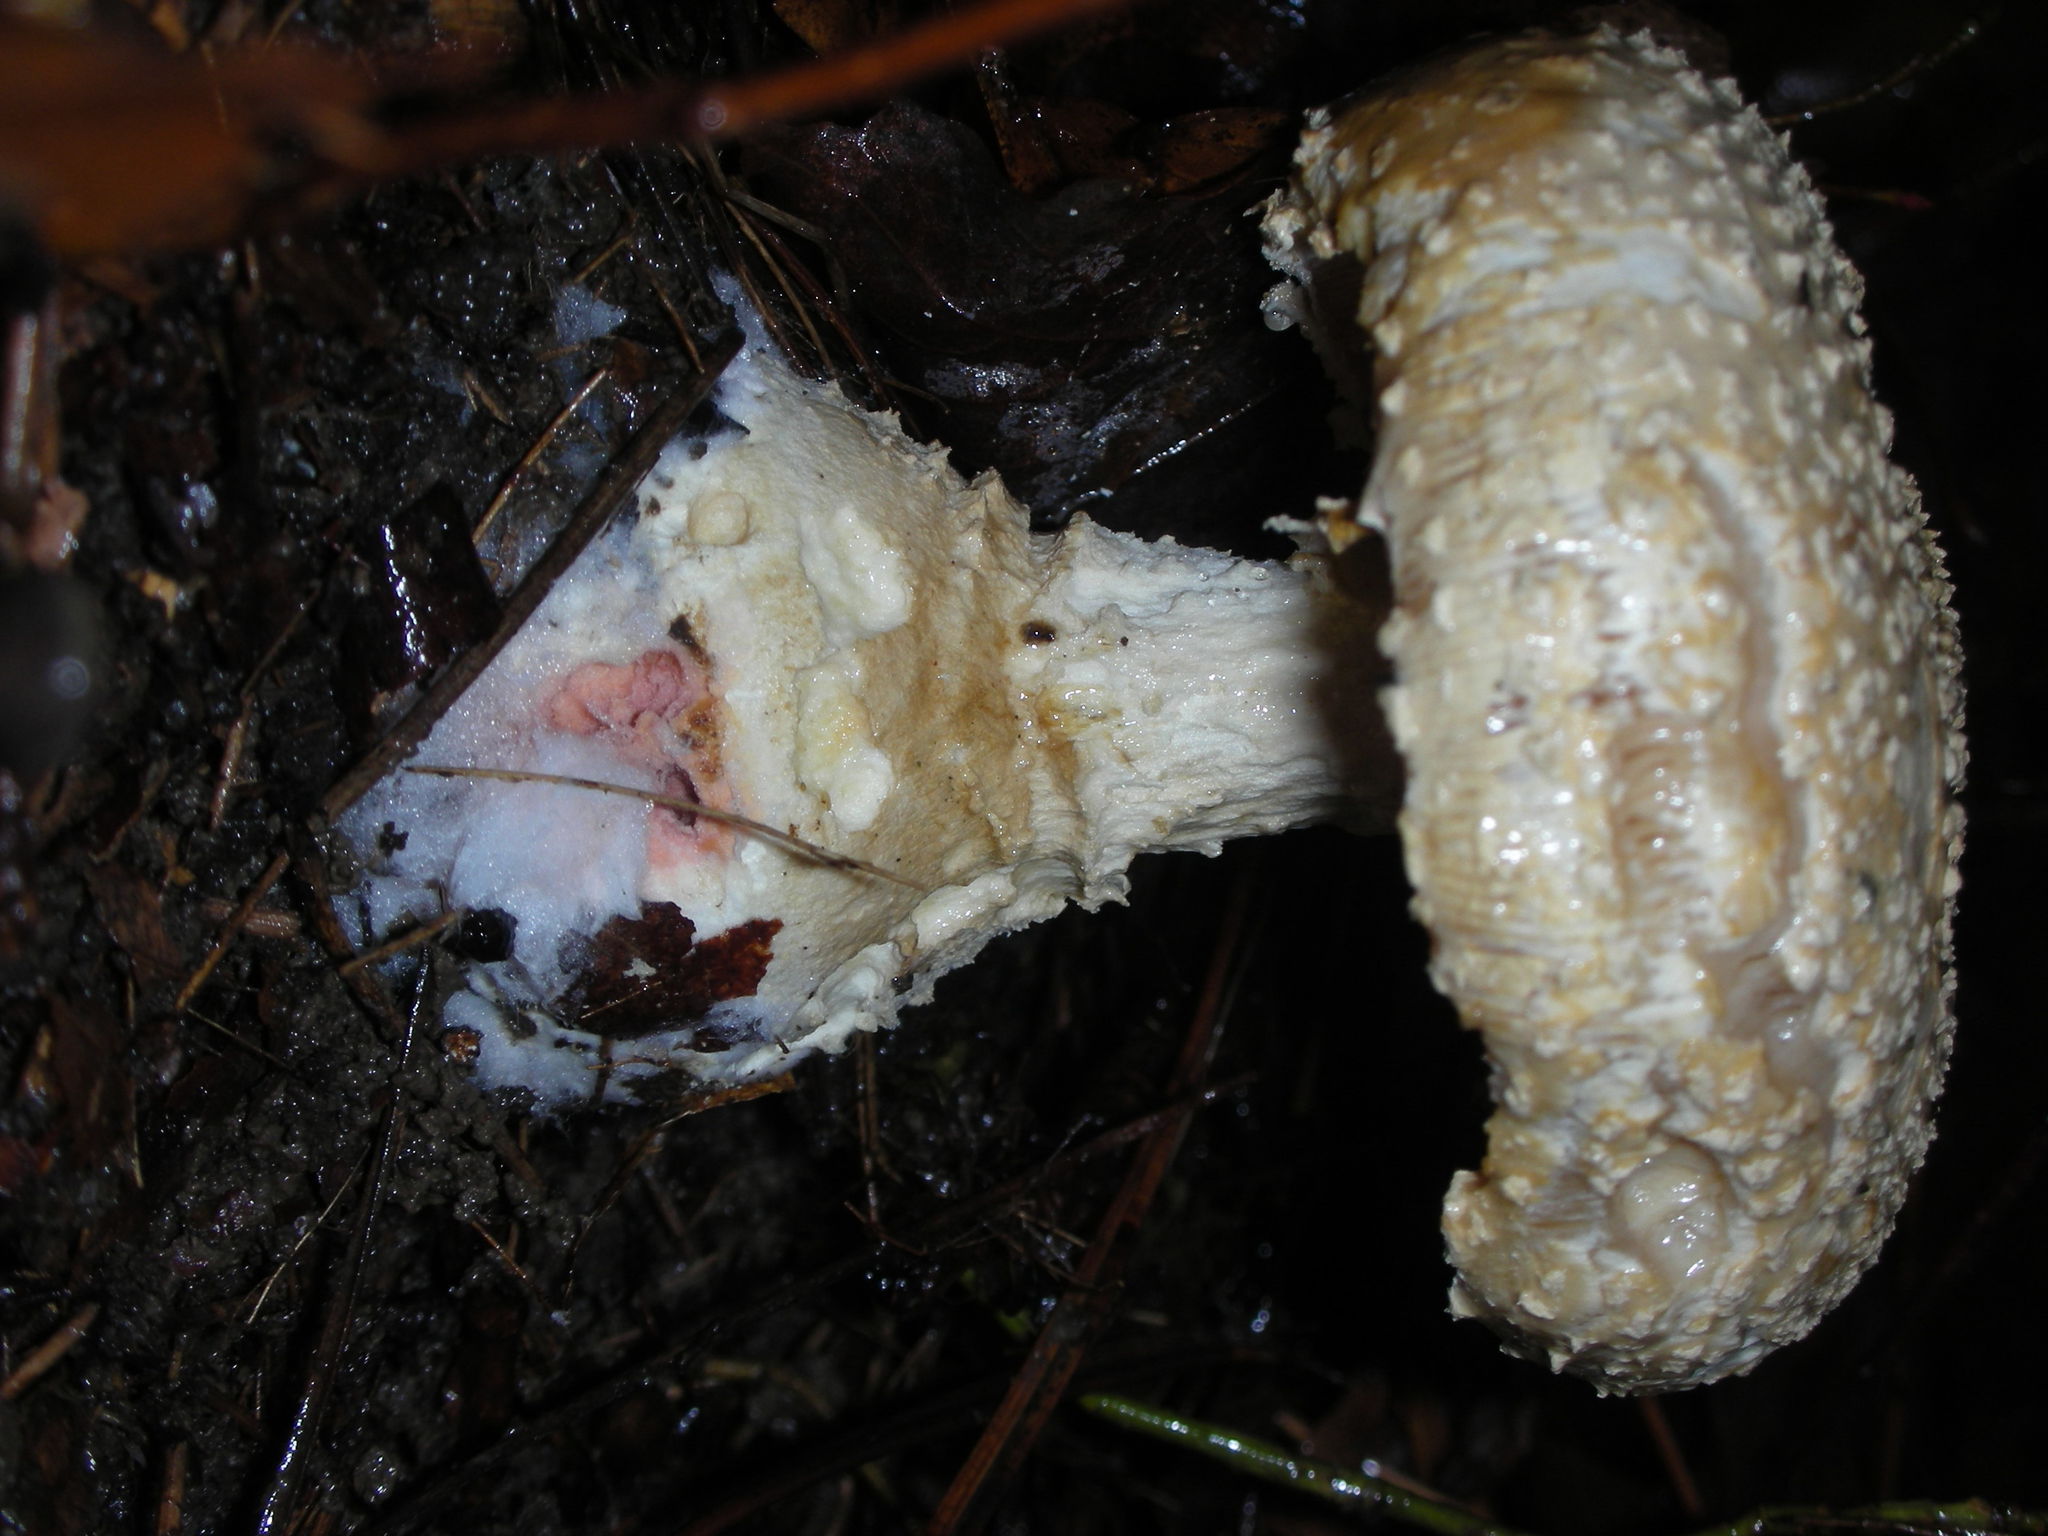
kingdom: Fungi
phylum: Ascomycota
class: Sordariomycetes
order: Hypocreales
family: Hypocreaceae
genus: Mycogone
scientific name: Mycogone rosea
